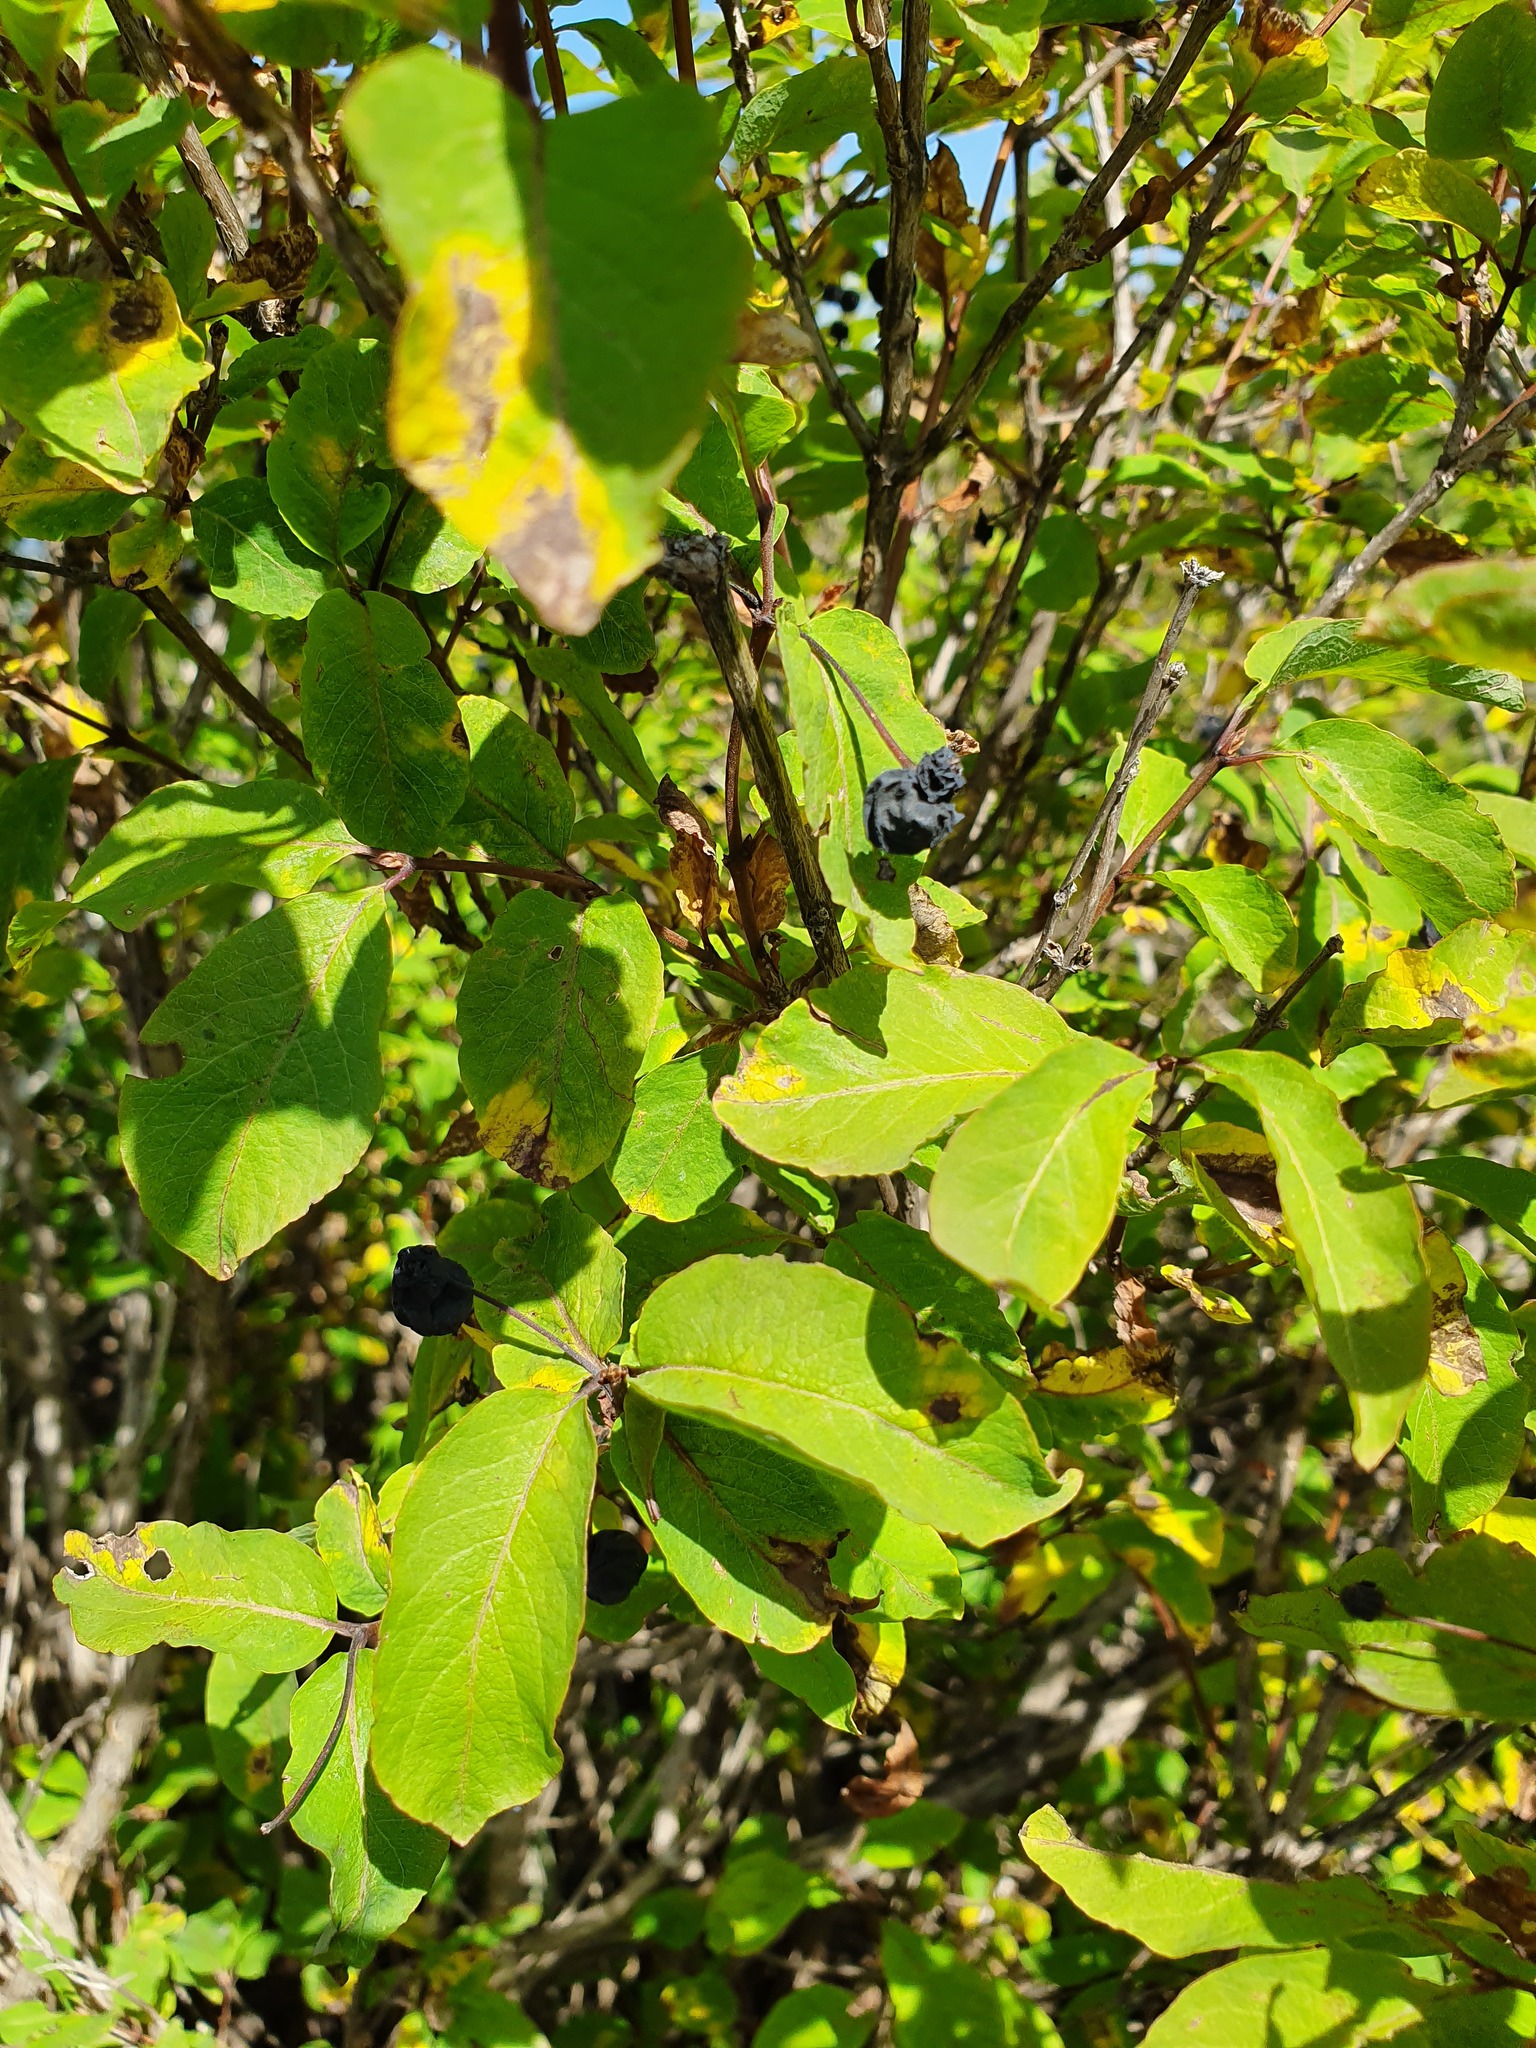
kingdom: Plantae
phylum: Tracheophyta
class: Magnoliopsida
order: Dipsacales
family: Caprifoliaceae
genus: Lonicera
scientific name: Lonicera nigra
